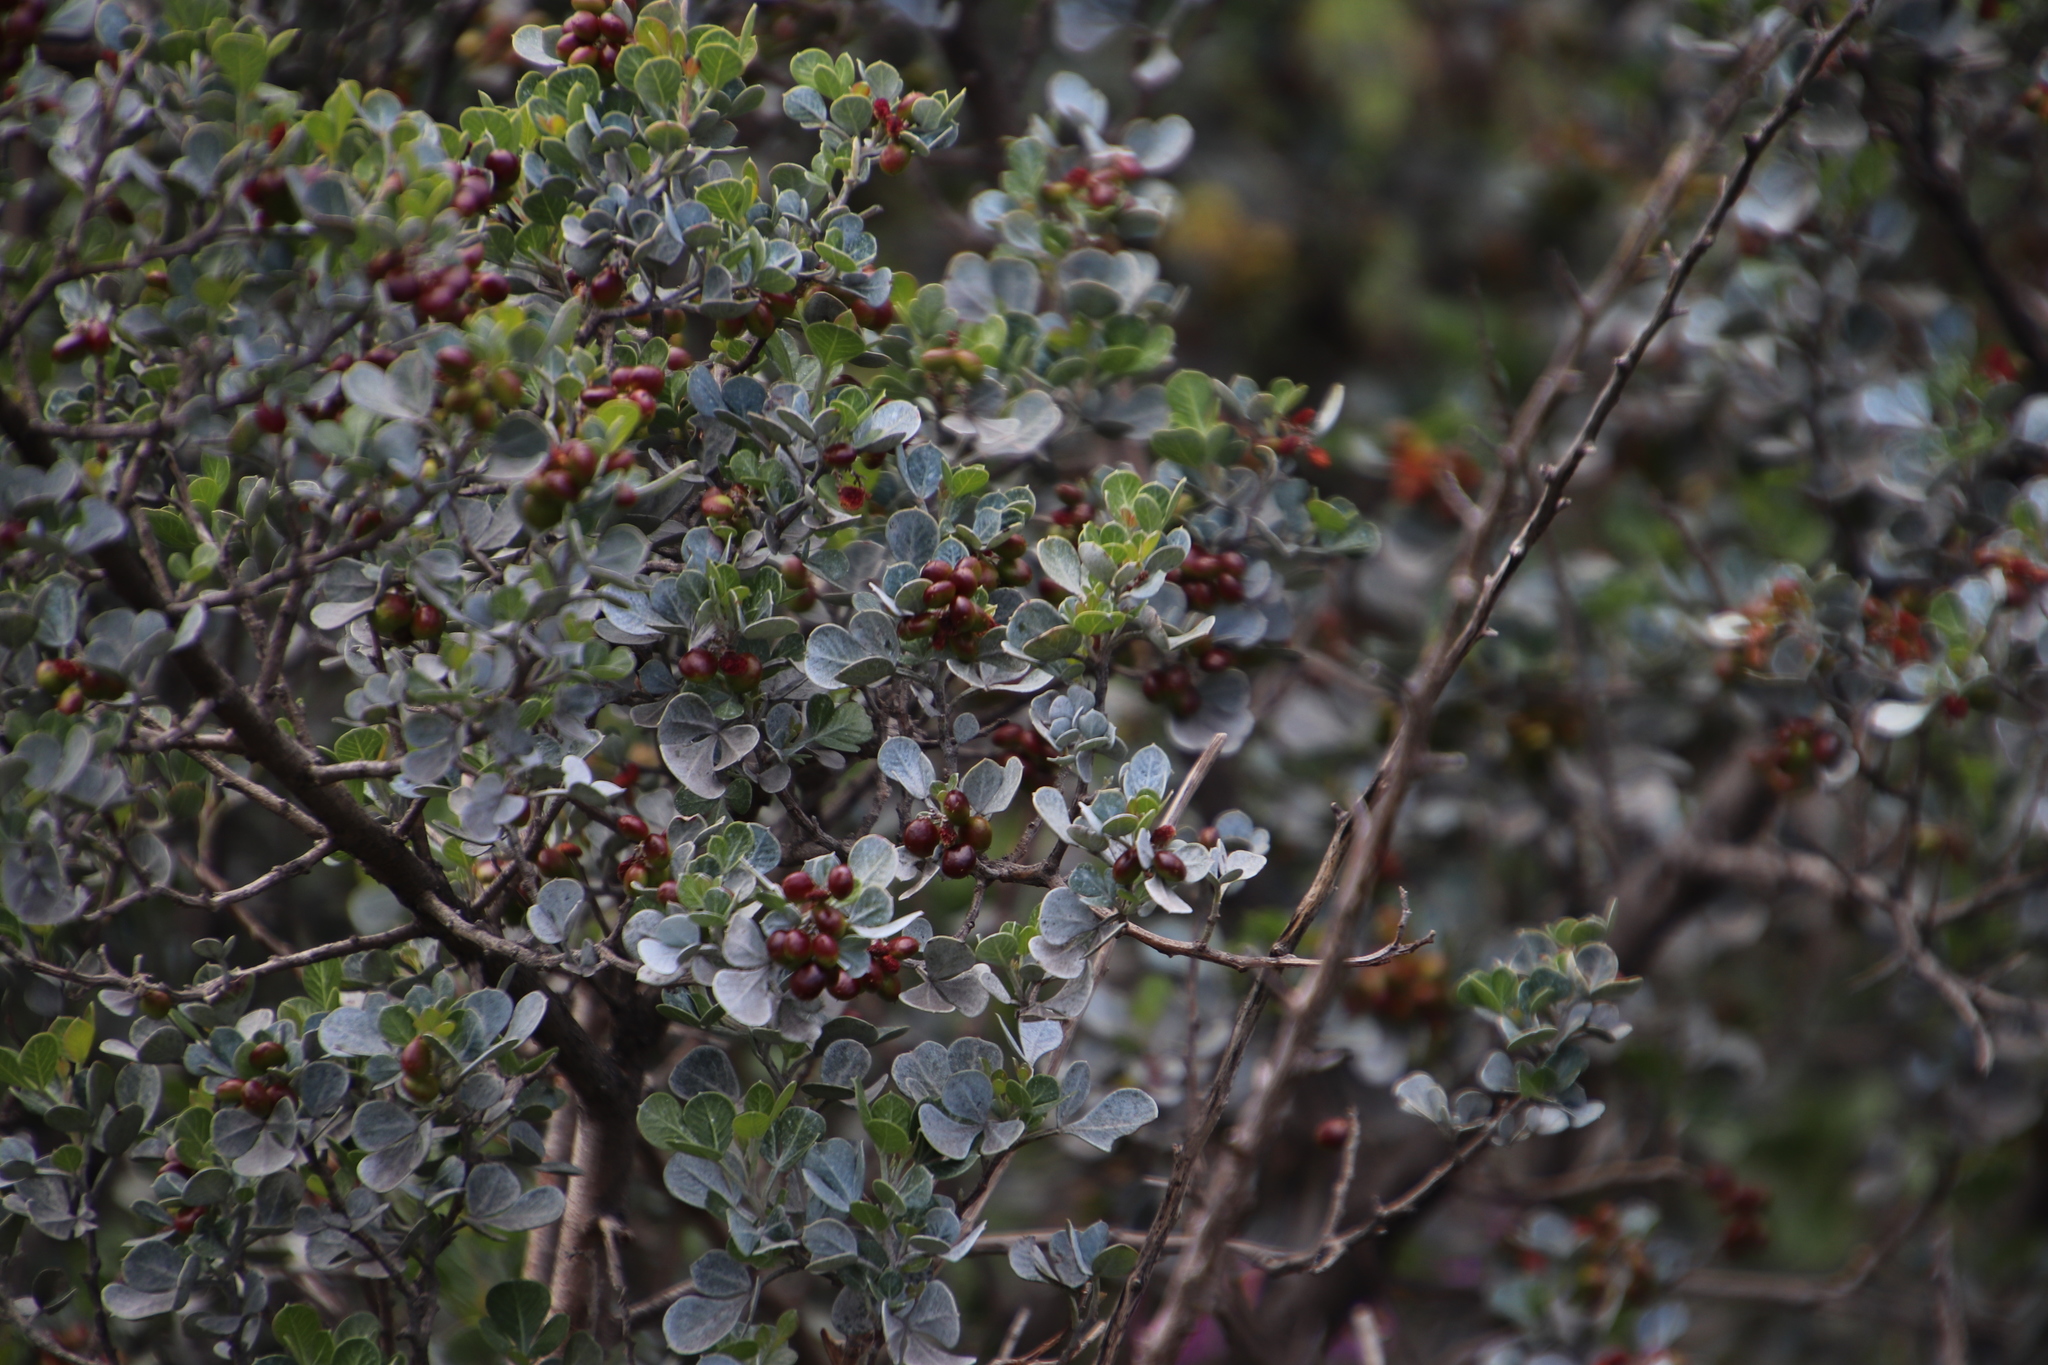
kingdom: Plantae
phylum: Tracheophyta
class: Magnoliopsida
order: Sapindales
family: Anacardiaceae
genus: Searsia
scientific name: Searsia glauca
